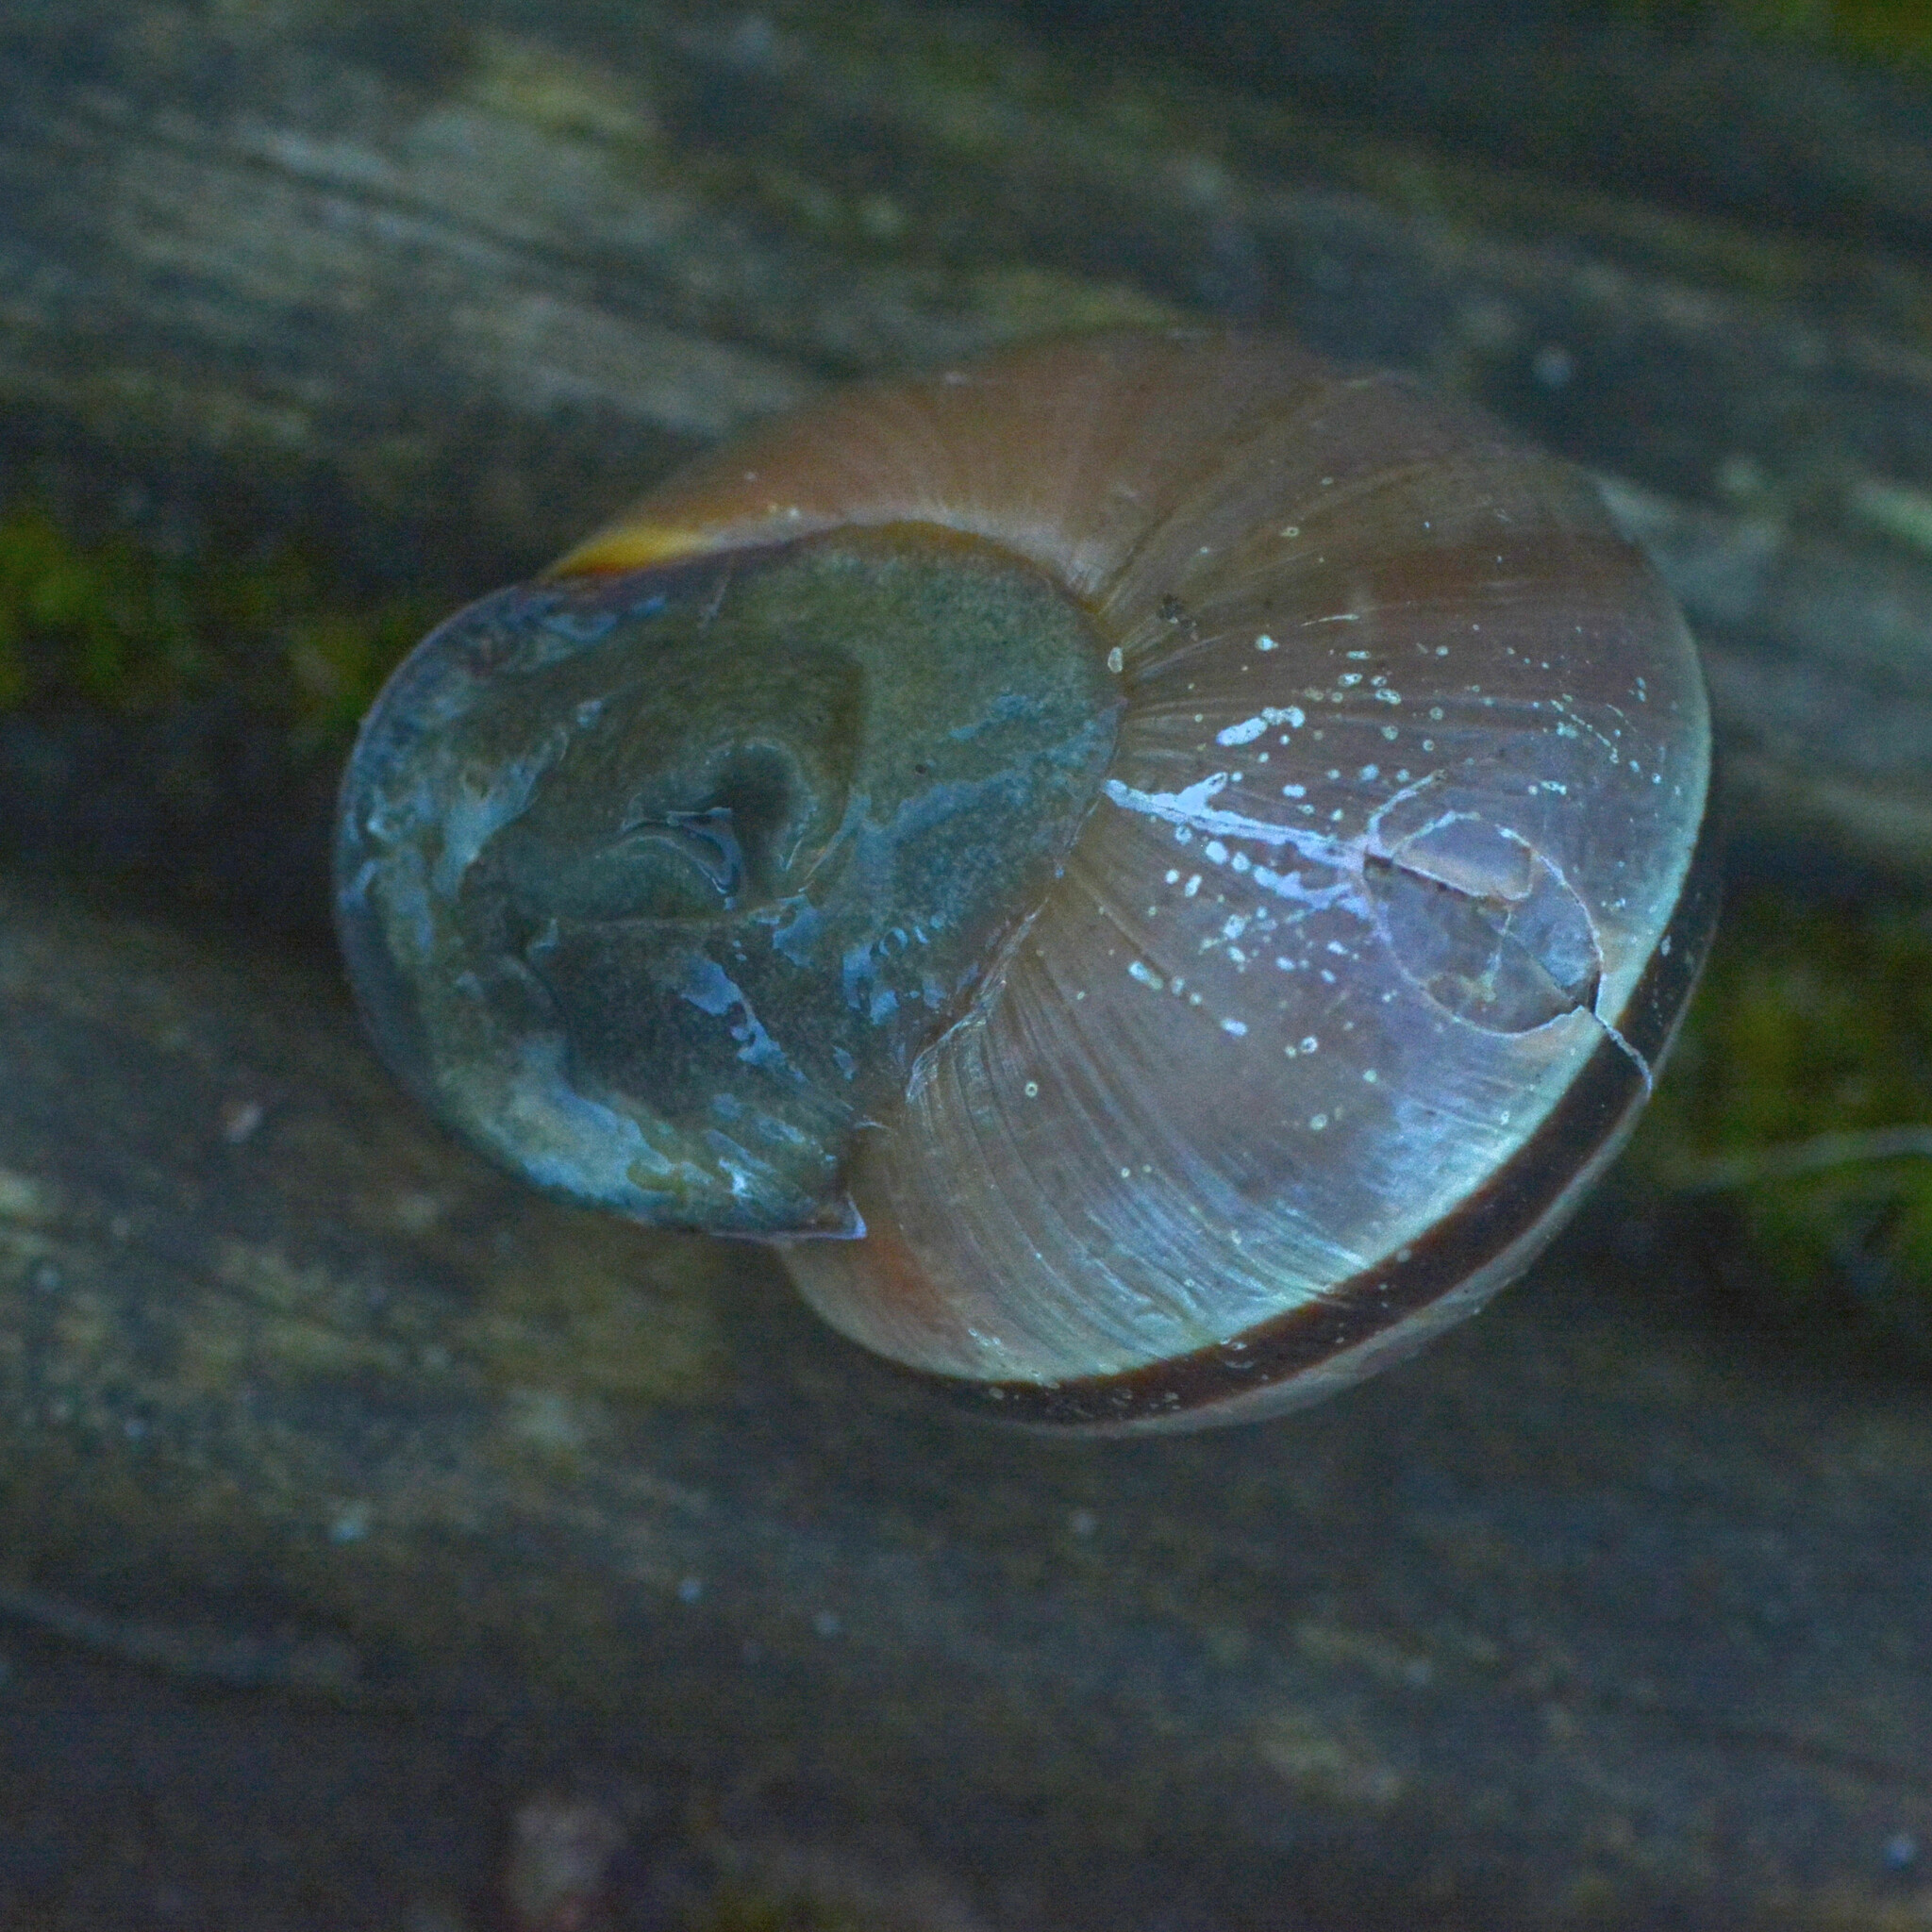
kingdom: Animalia
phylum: Mollusca
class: Gastropoda
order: Stylommatophora
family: Helicidae
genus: Cepaea
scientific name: Cepaea nemoralis
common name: Grovesnail
